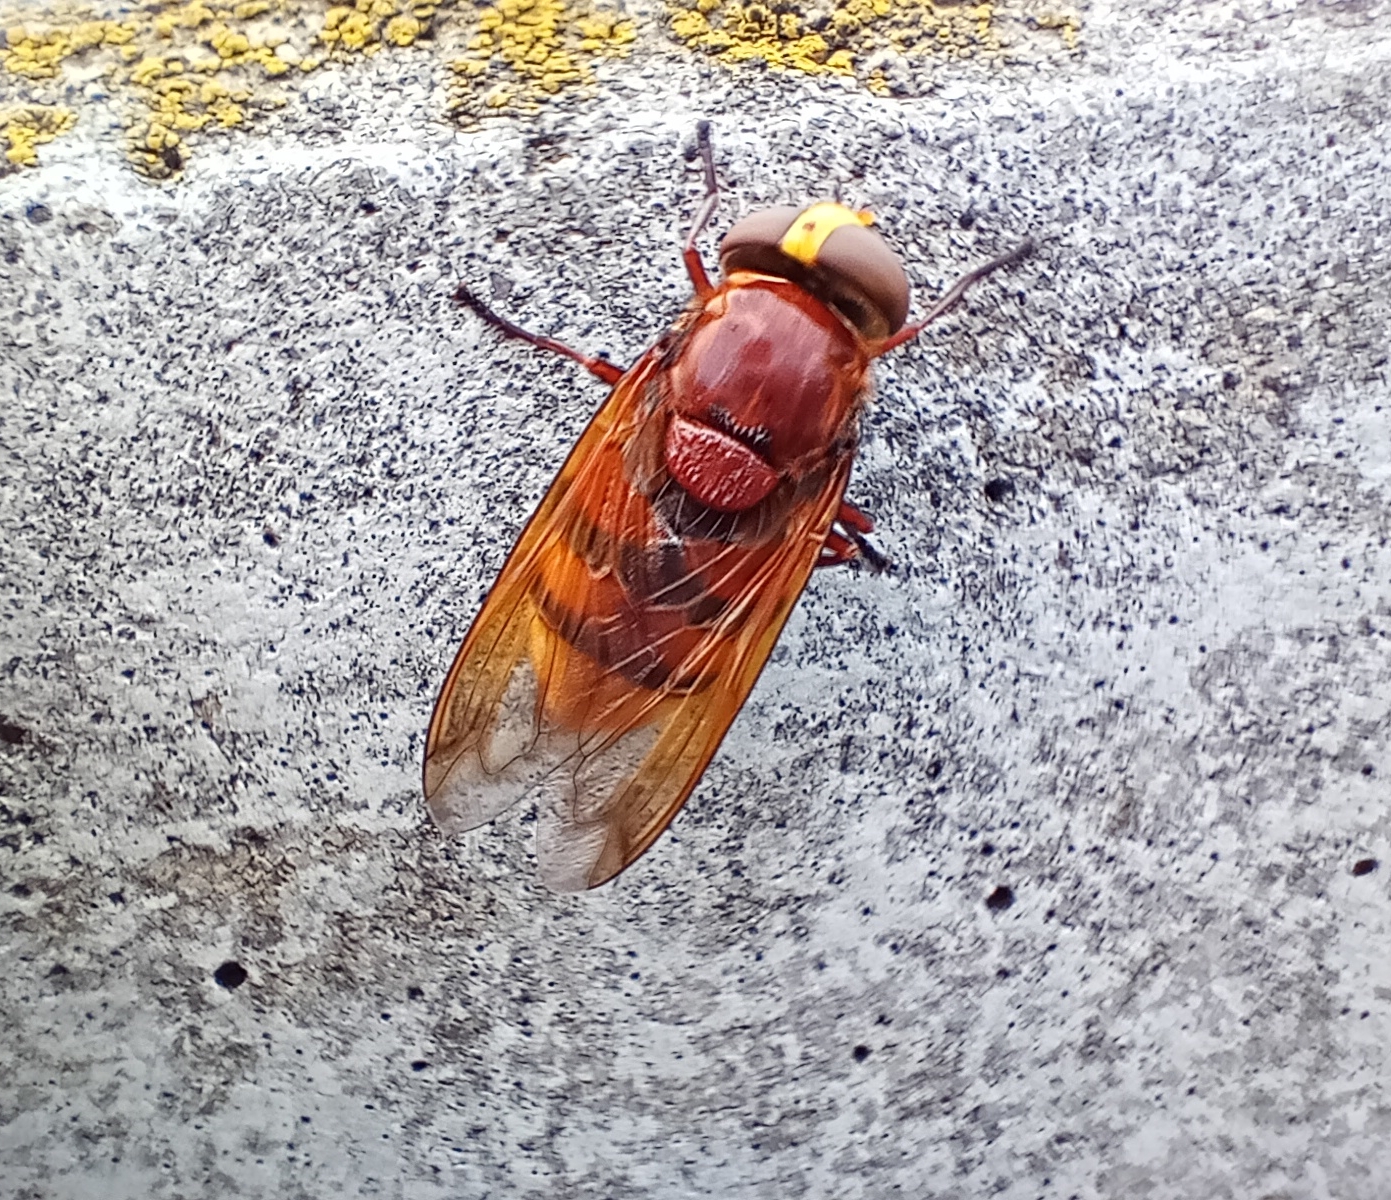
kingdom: Animalia
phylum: Arthropoda
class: Insecta
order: Diptera
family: Syrphidae
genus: Volucella
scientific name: Volucella zonaria
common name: Hornet hoverfly
